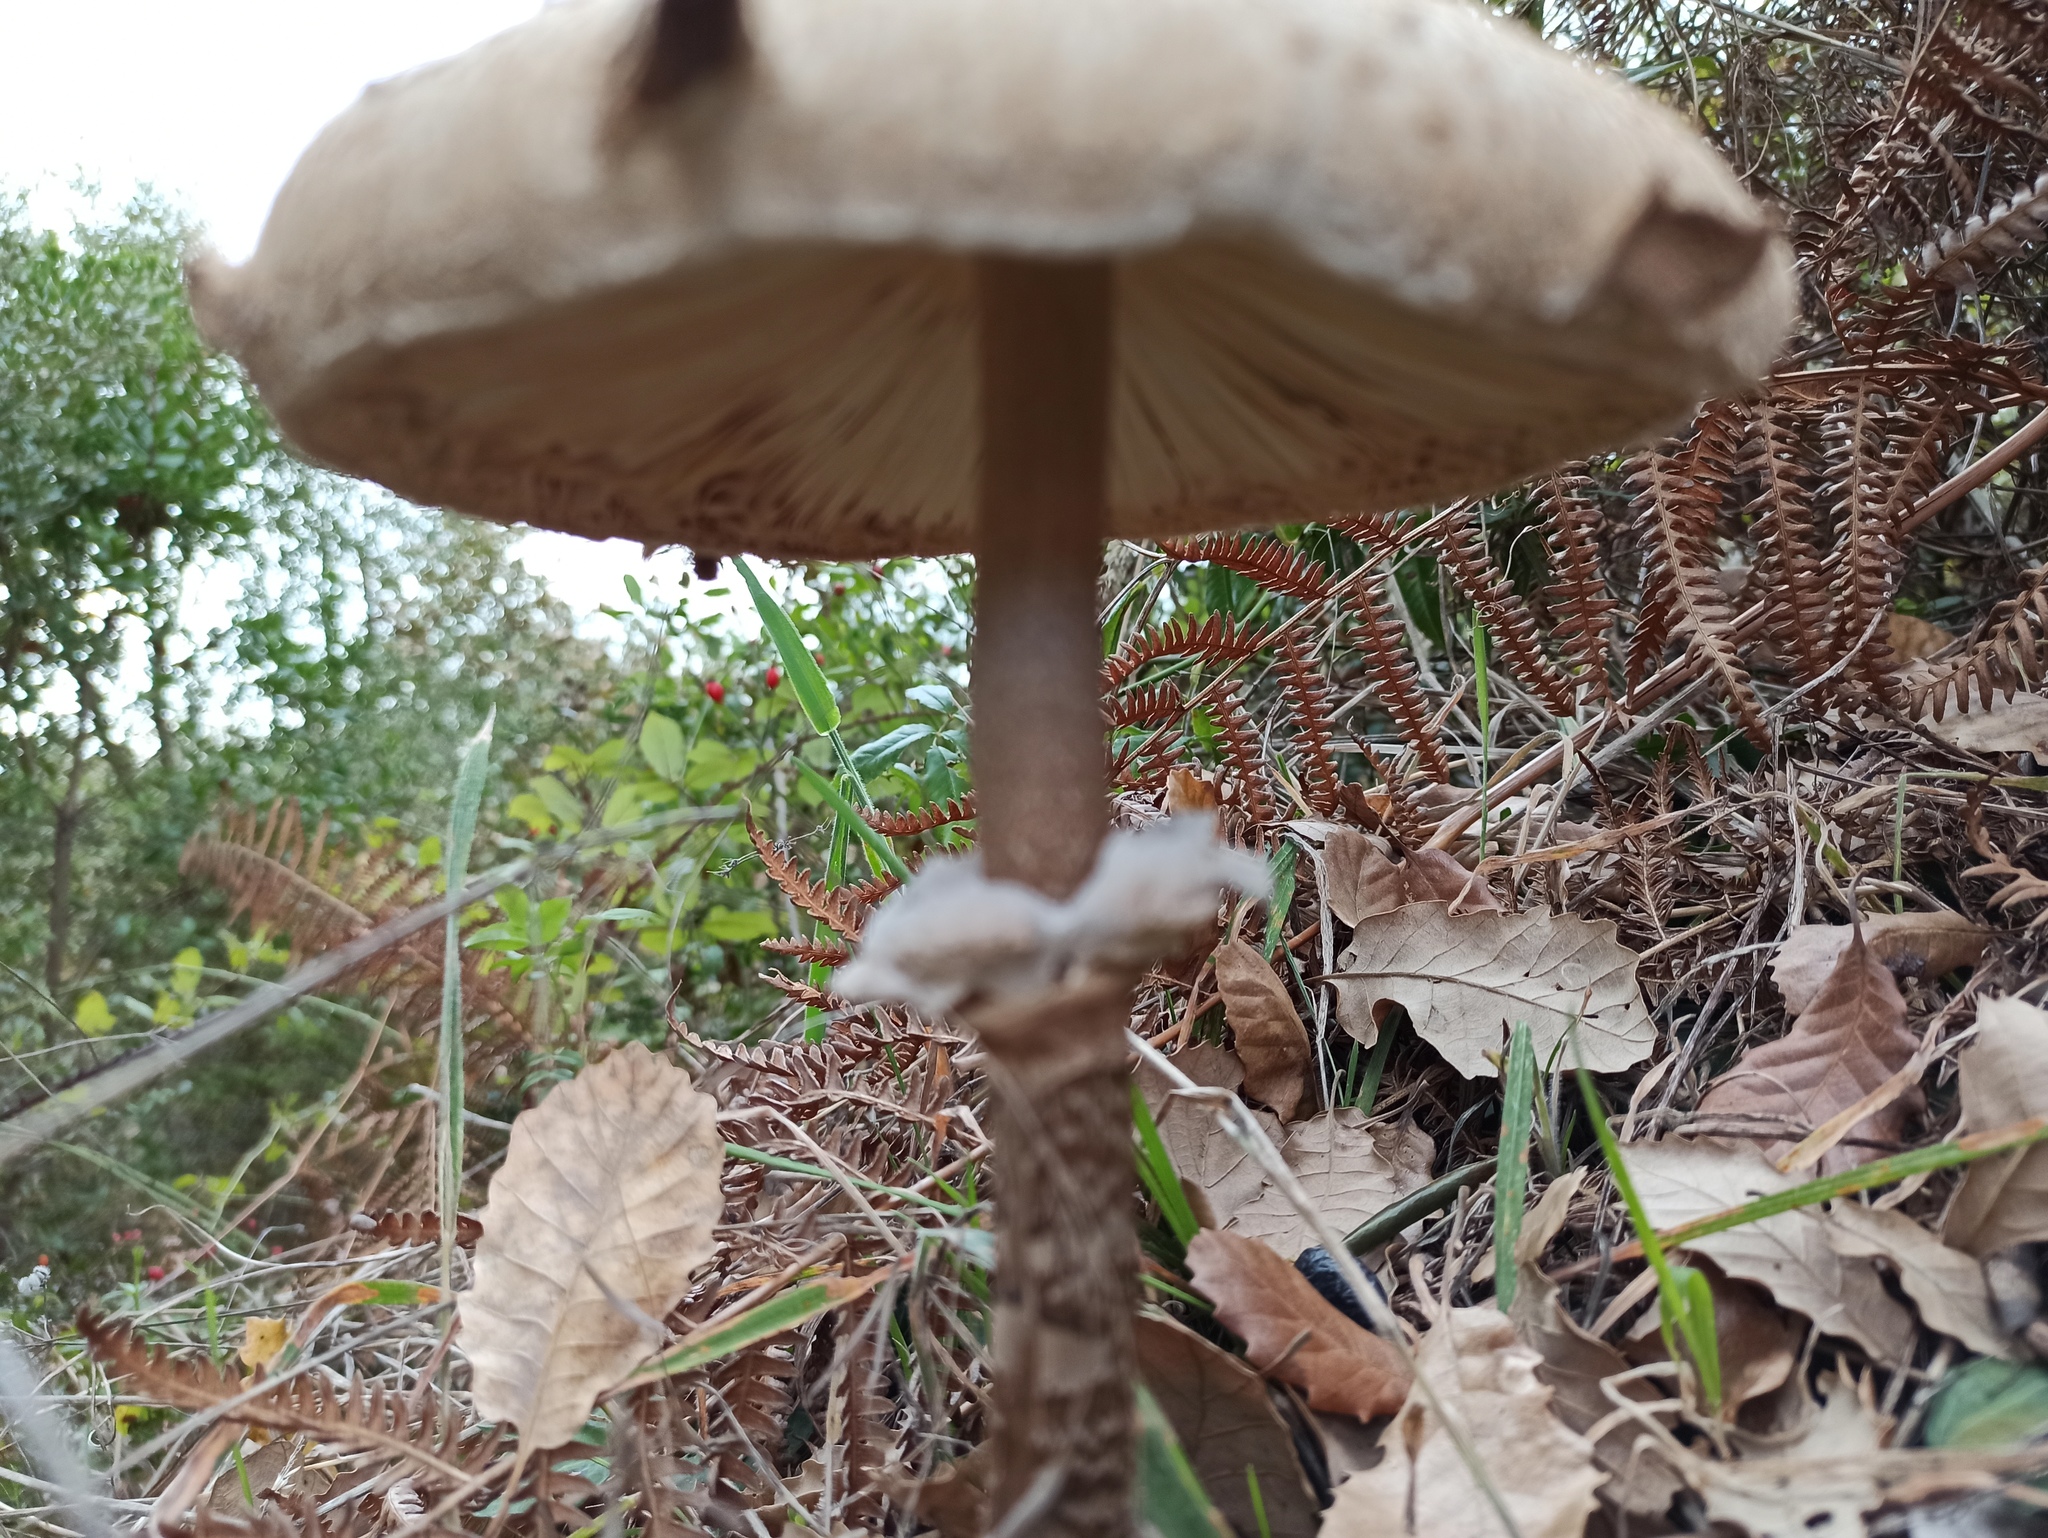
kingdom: Fungi
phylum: Basidiomycota
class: Agaricomycetes
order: Agaricales
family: Agaricaceae
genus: Macrolepiota
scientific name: Macrolepiota procera
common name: Parasol
